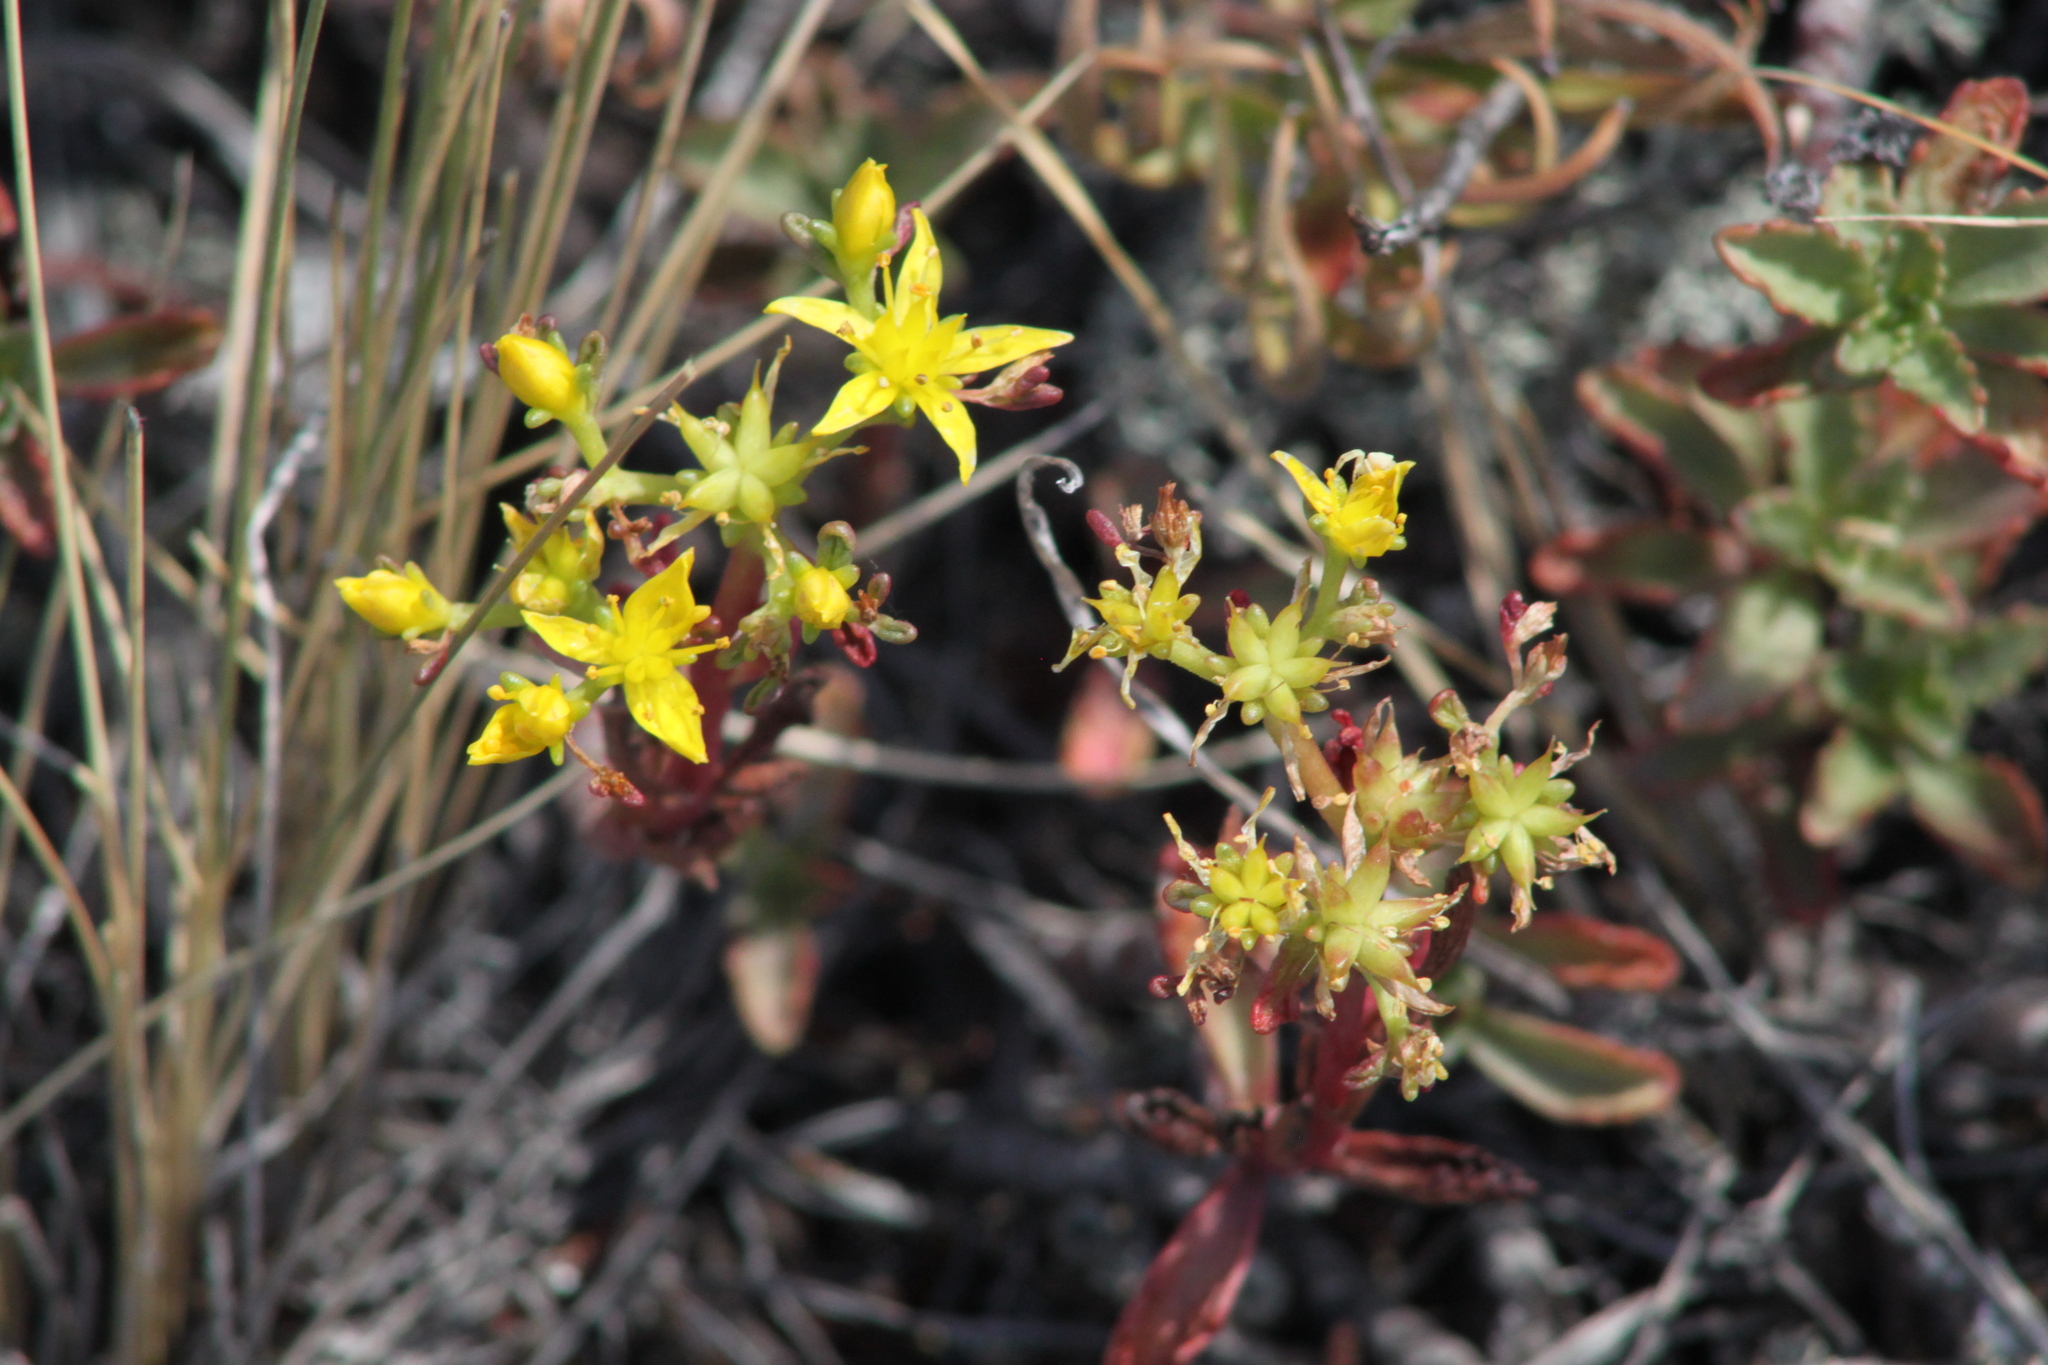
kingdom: Plantae
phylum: Tracheophyta
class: Magnoliopsida
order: Saxifragales
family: Crassulaceae
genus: Phedimus
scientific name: Phedimus hybridus
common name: Hybrid stonecrop
